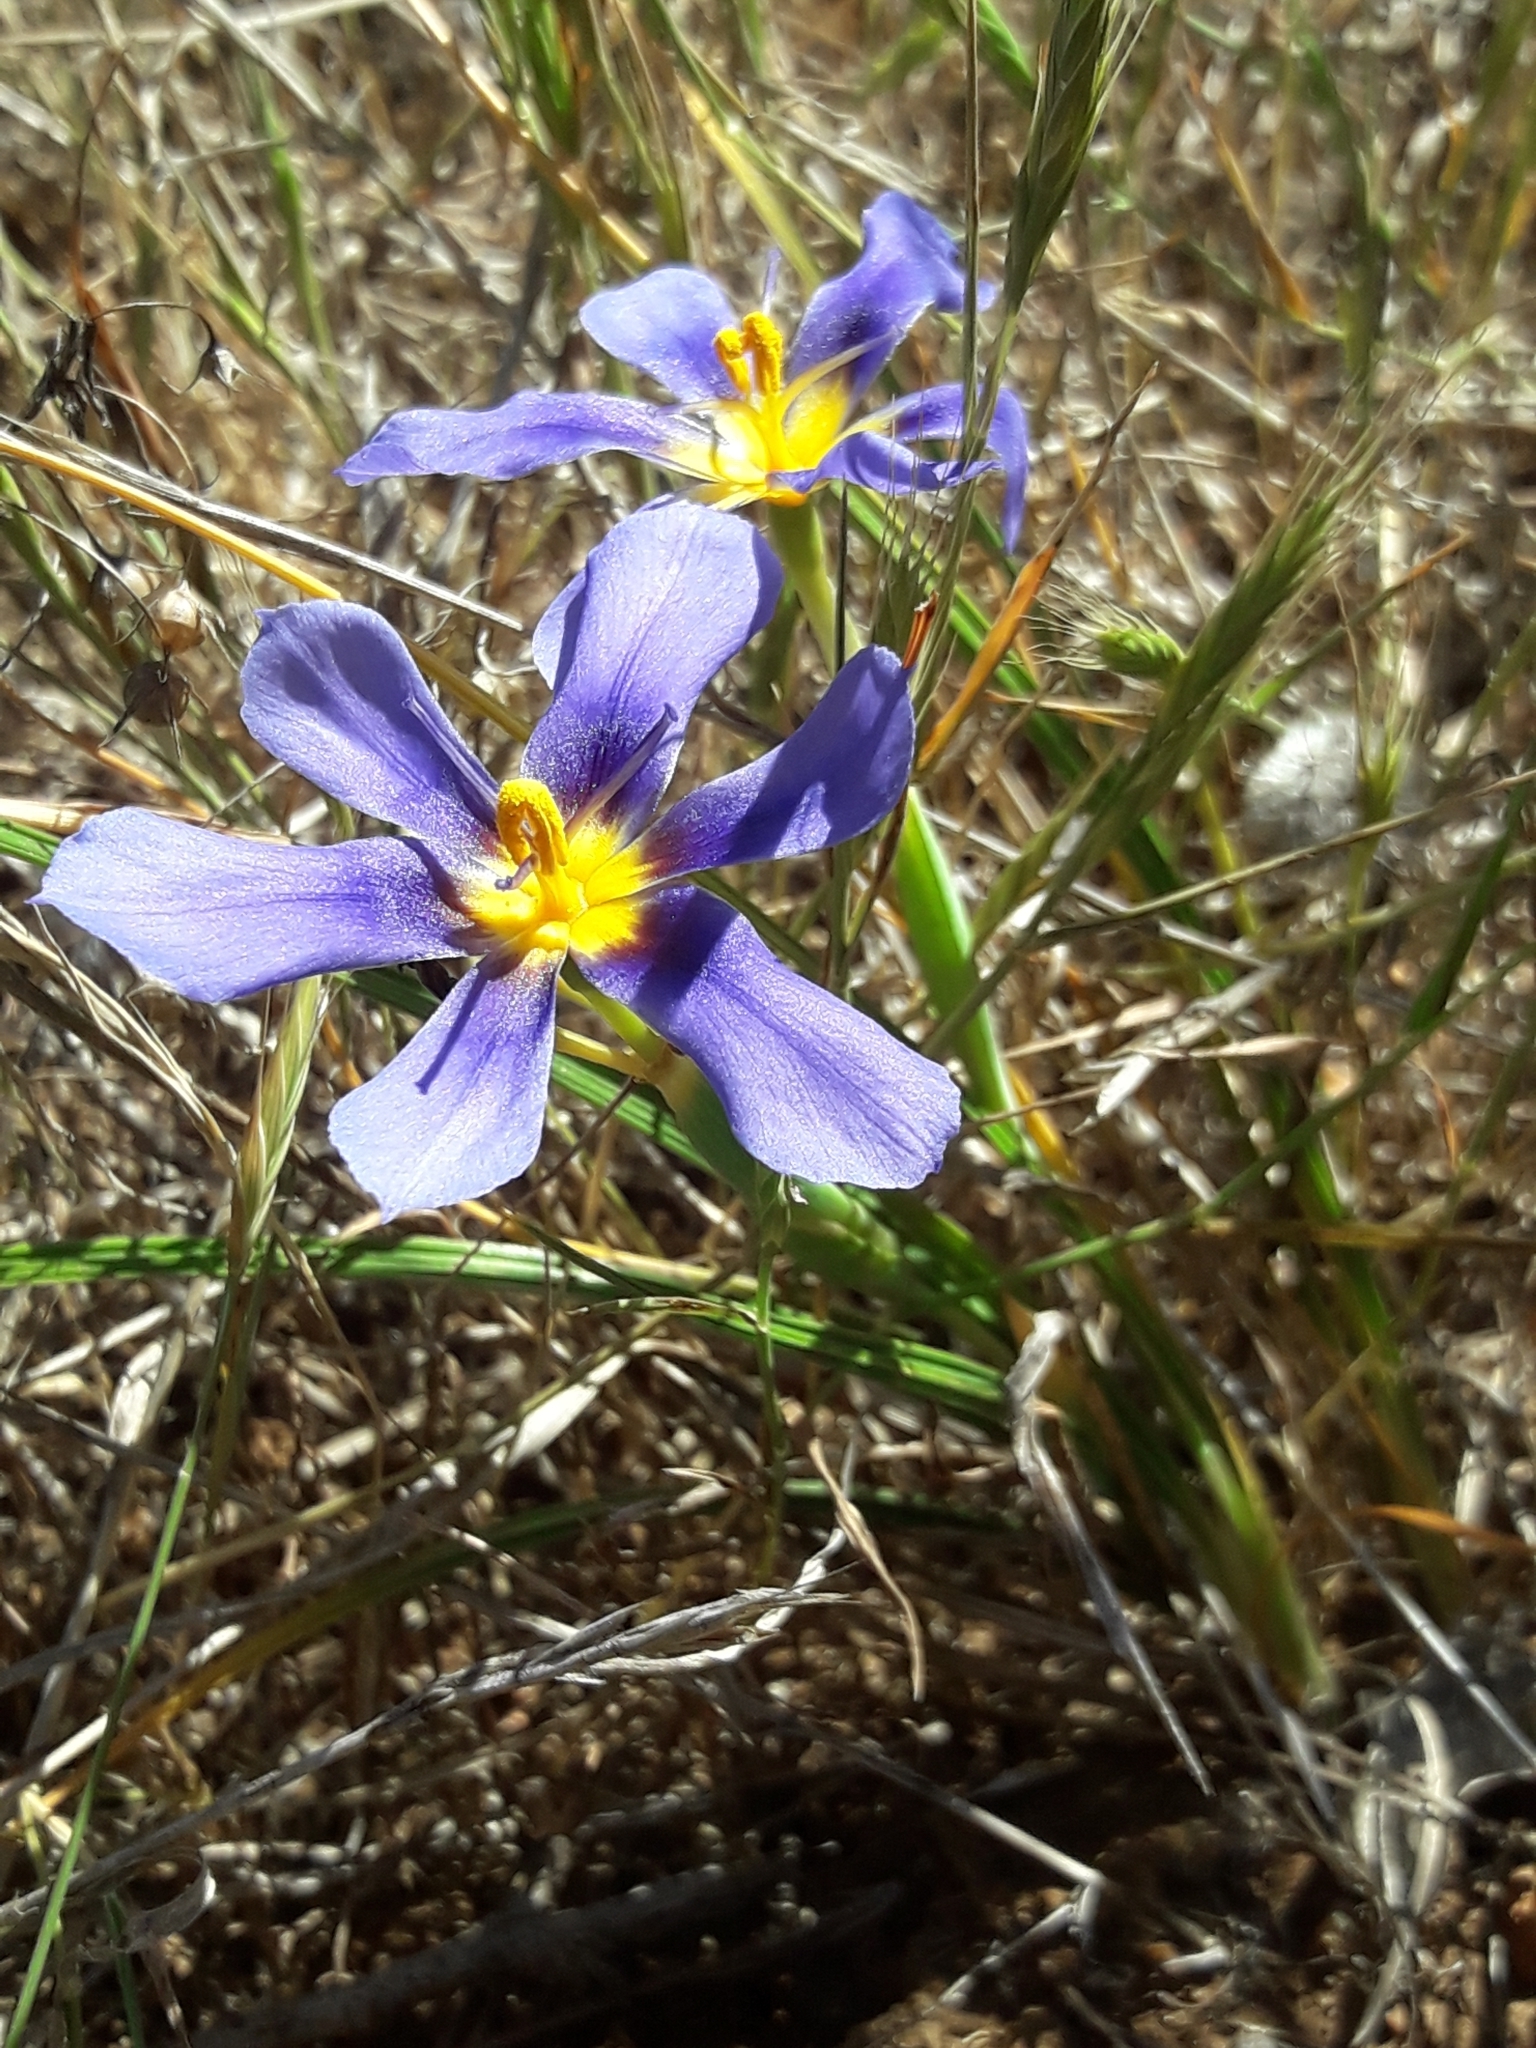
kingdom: Plantae
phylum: Tracheophyta
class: Liliopsida
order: Asparagales
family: Iridaceae
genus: Calydorea
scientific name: Calydorea xiphioides
